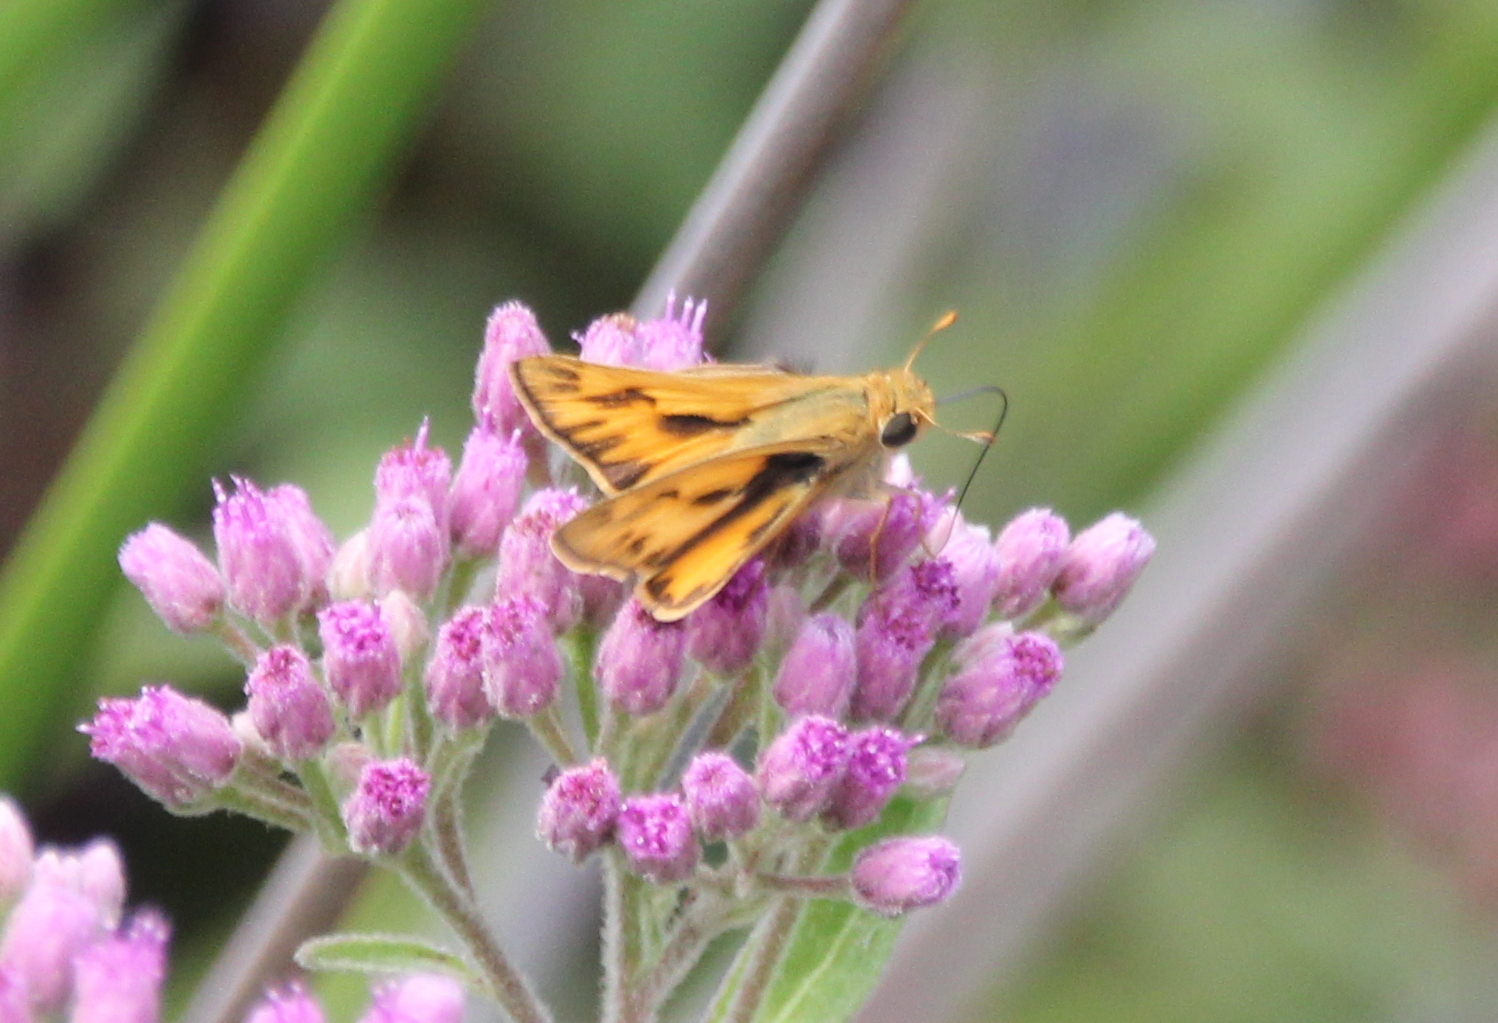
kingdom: Animalia
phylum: Arthropoda
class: Insecta
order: Lepidoptera
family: Hesperiidae
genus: Hylephila
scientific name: Hylephila phyleus
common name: Fiery skipper
